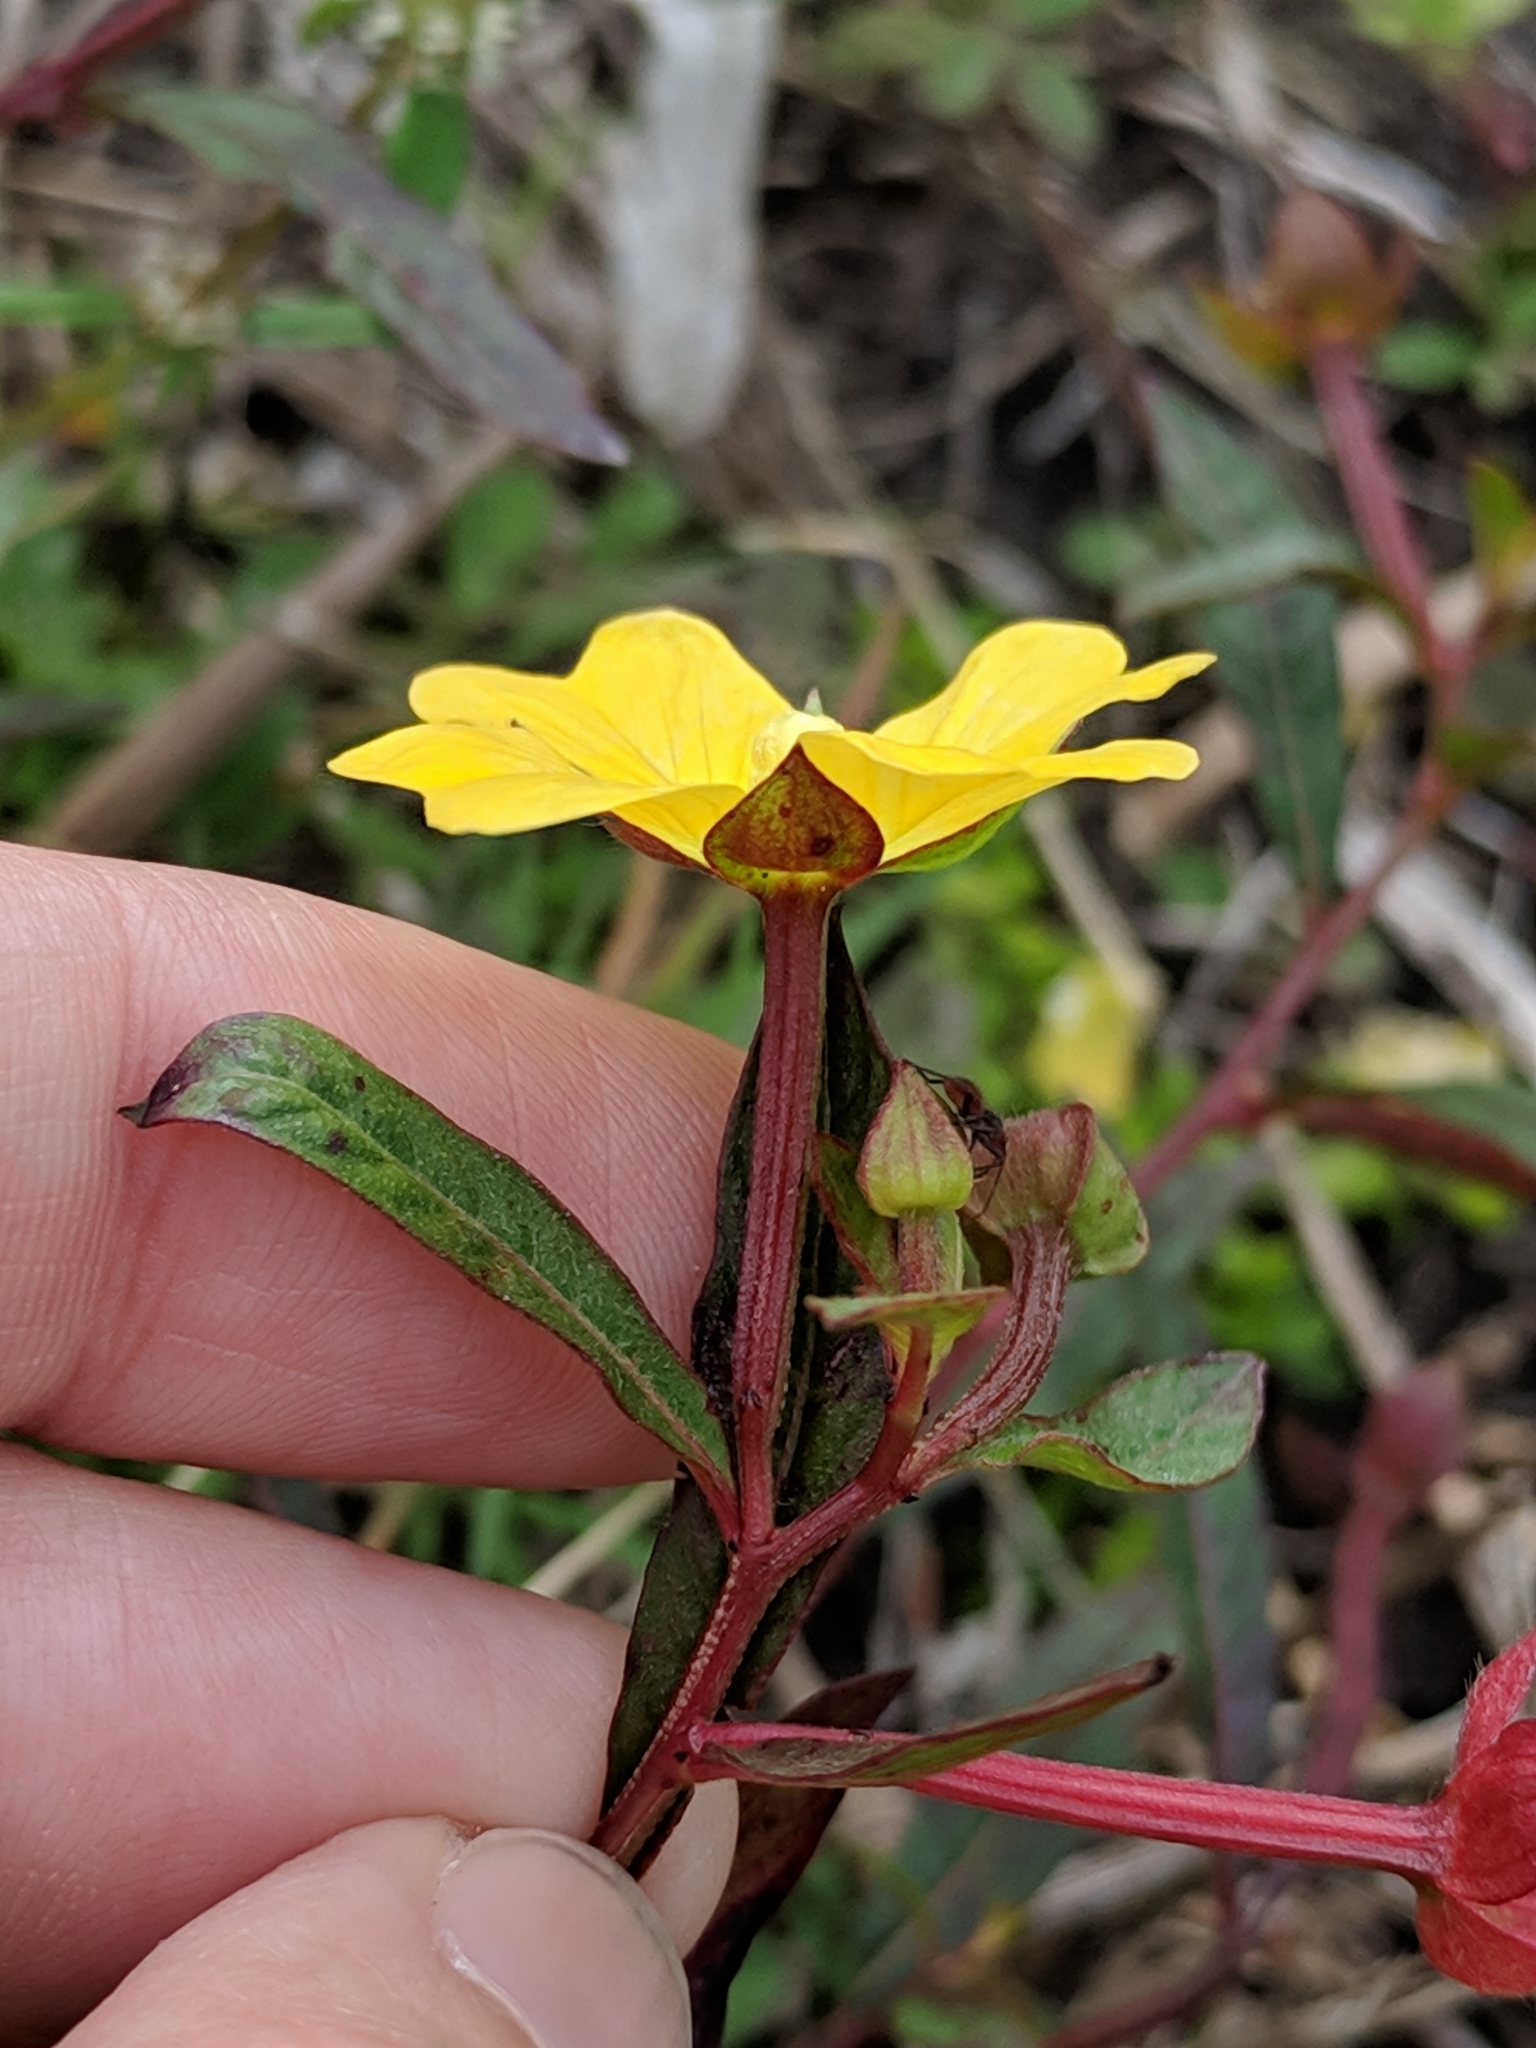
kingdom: Plantae
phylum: Tracheophyta
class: Magnoliopsida
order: Myrtales
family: Onagraceae
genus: Ludwigia
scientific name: Ludwigia octovalvis
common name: Water-primrose
